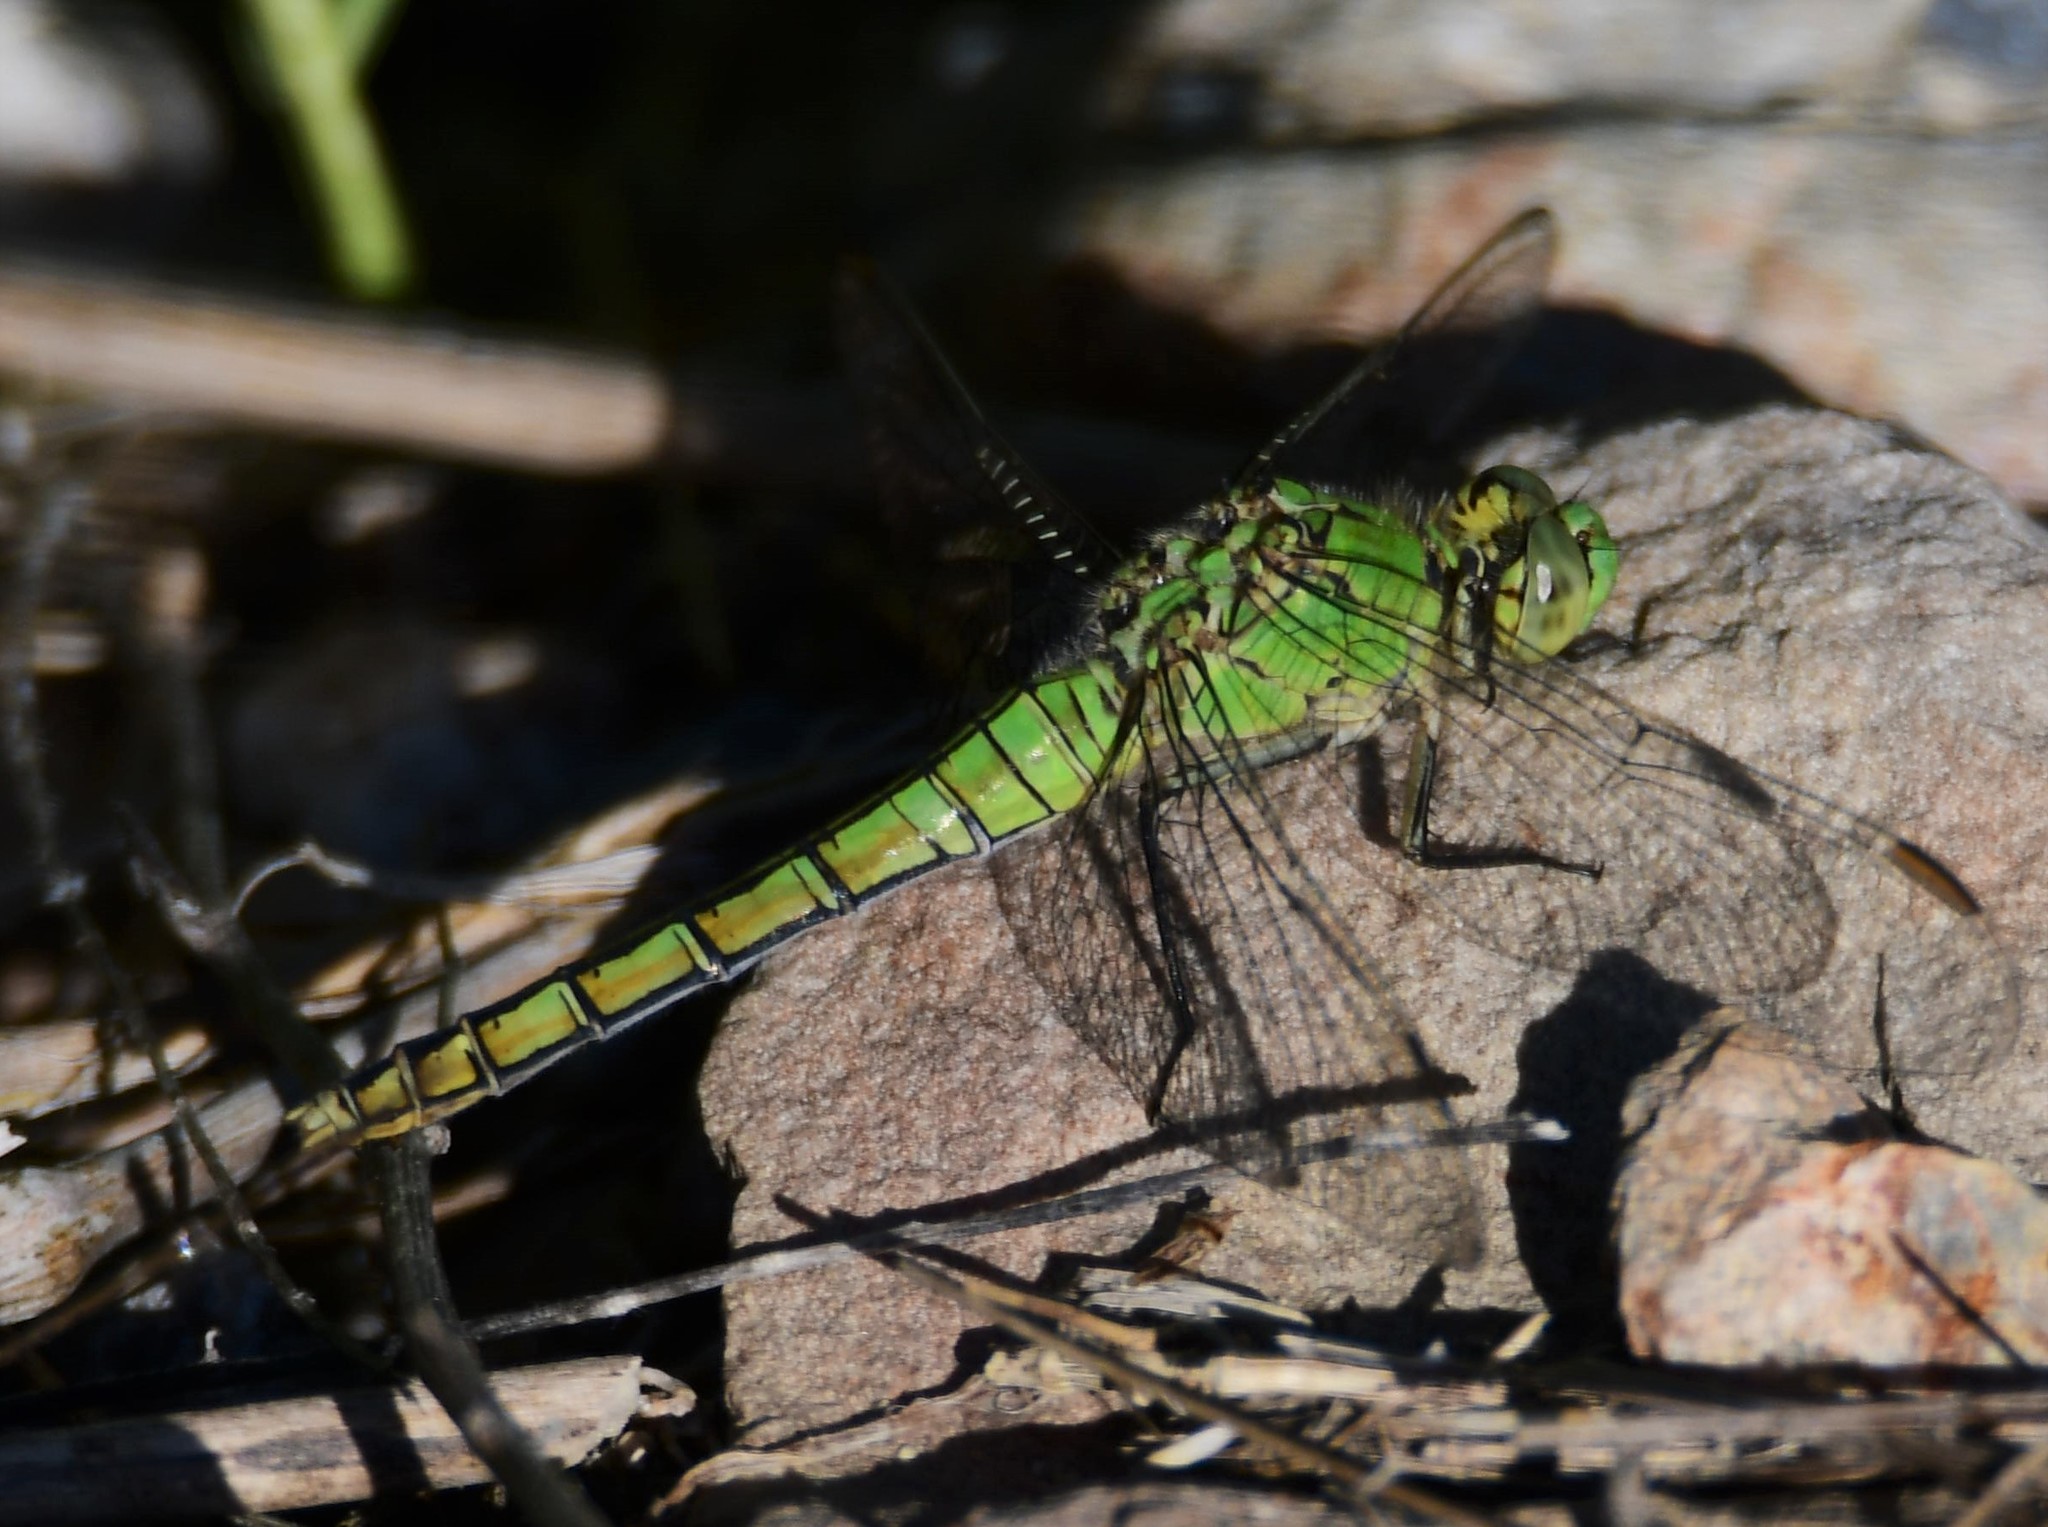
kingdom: Animalia
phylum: Arthropoda
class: Insecta
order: Odonata
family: Libellulidae
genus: Erythemis
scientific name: Erythemis collocata
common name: Western pondhawk
